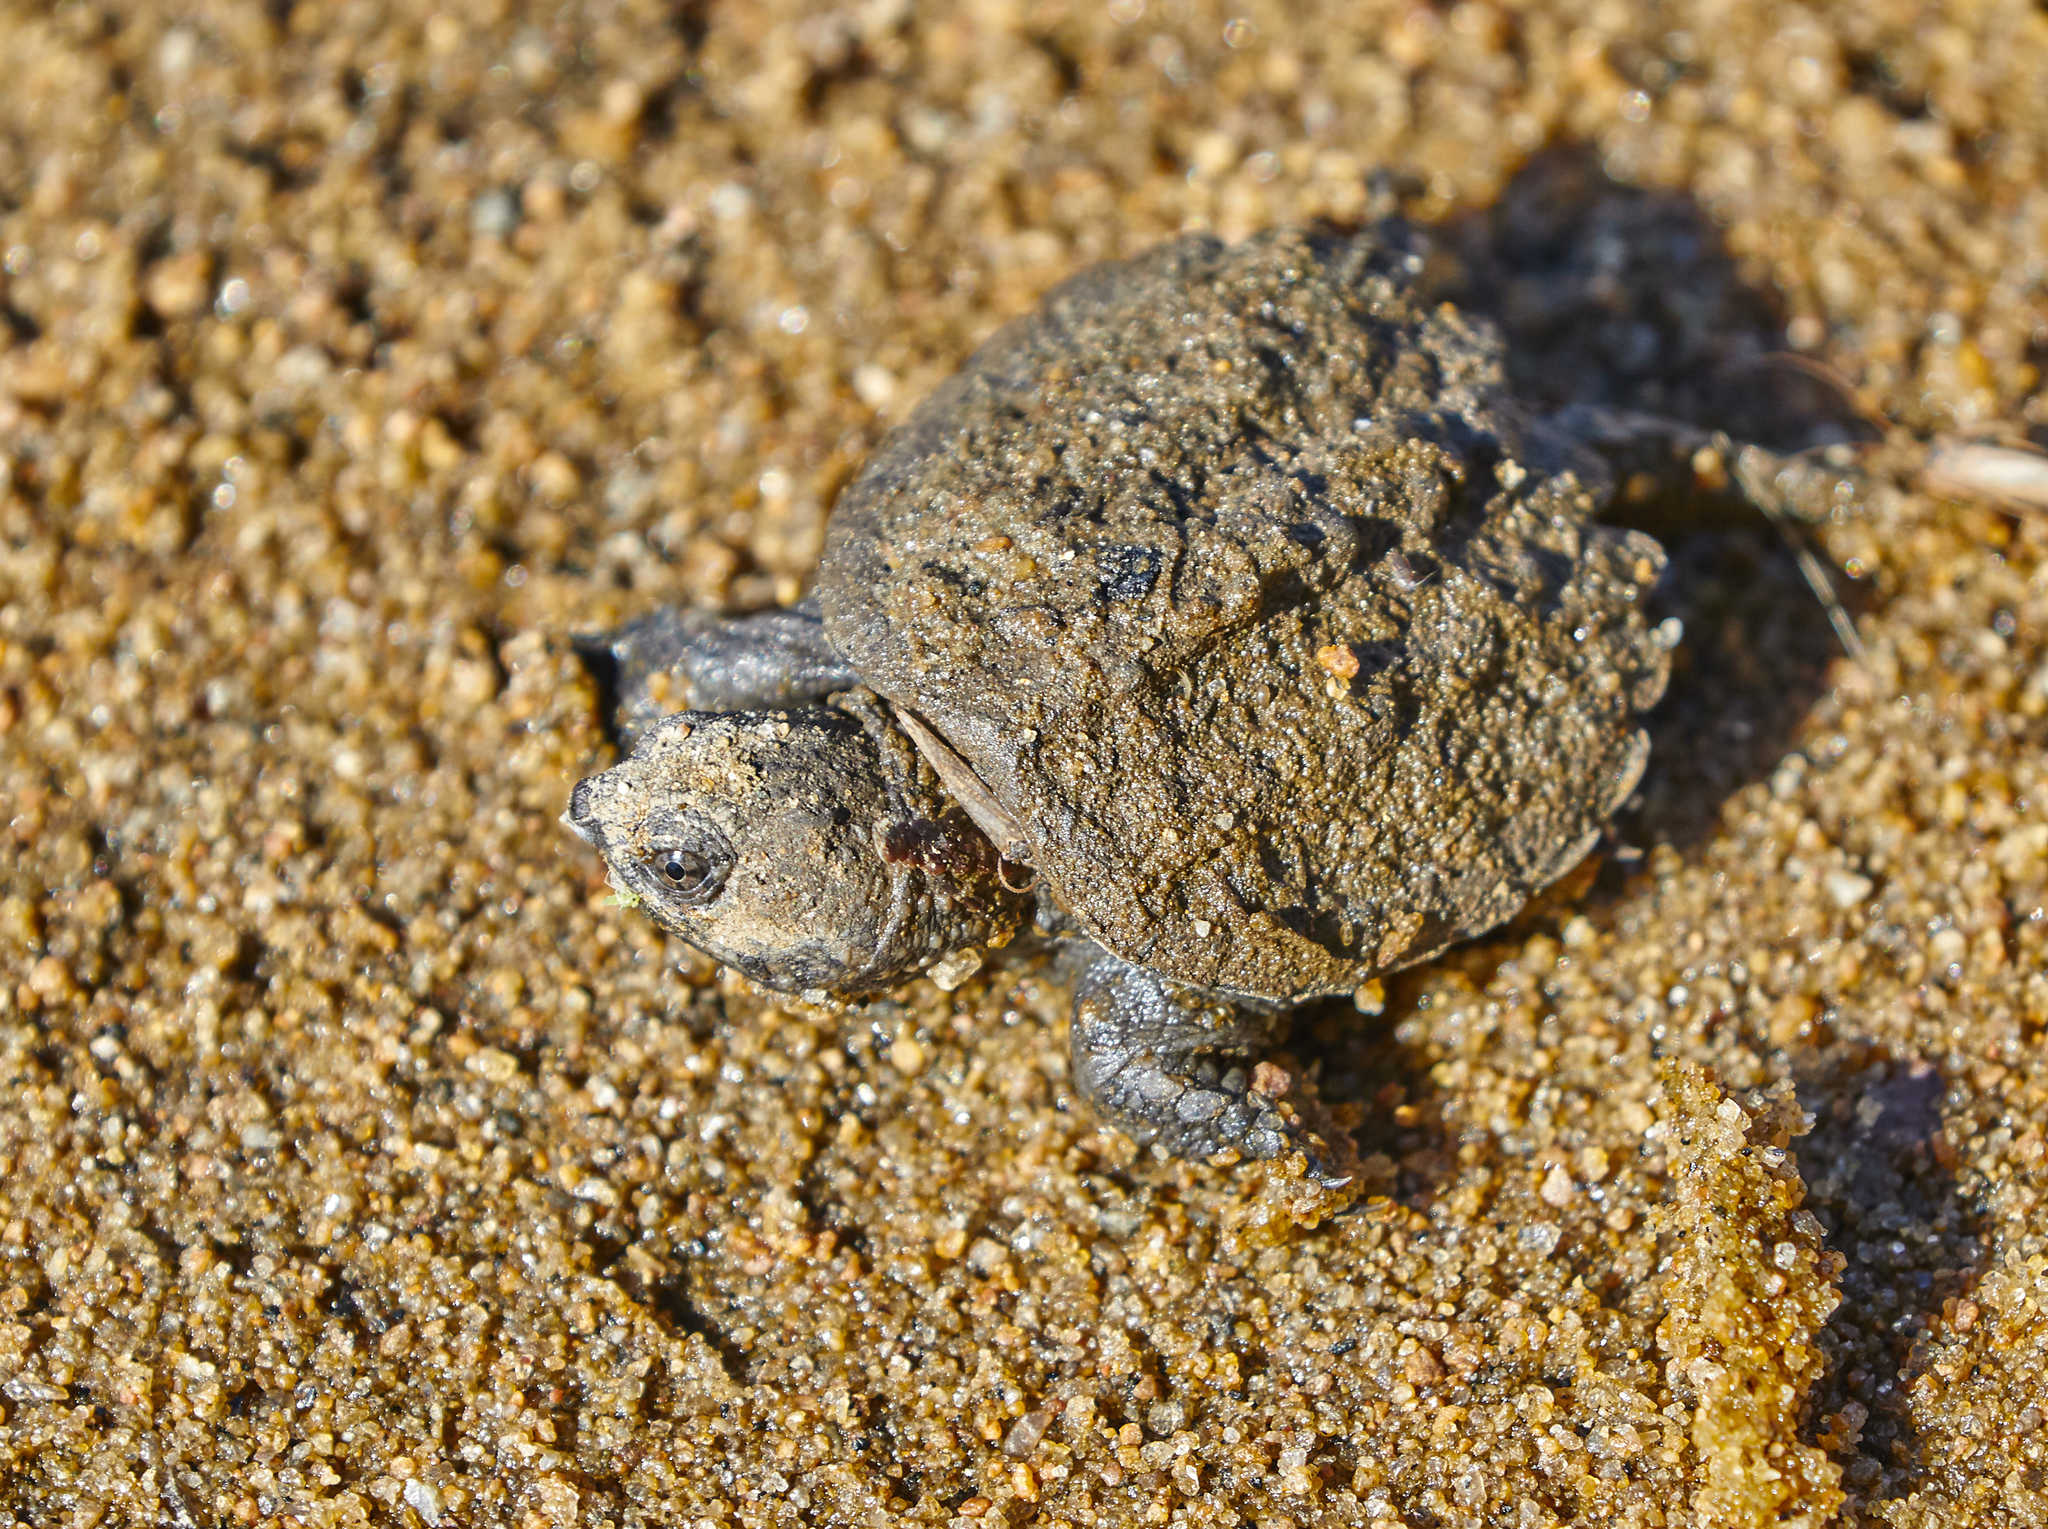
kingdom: Animalia
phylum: Chordata
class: Testudines
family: Chelydridae
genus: Chelydra
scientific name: Chelydra serpentina
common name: Common snapping turtle
